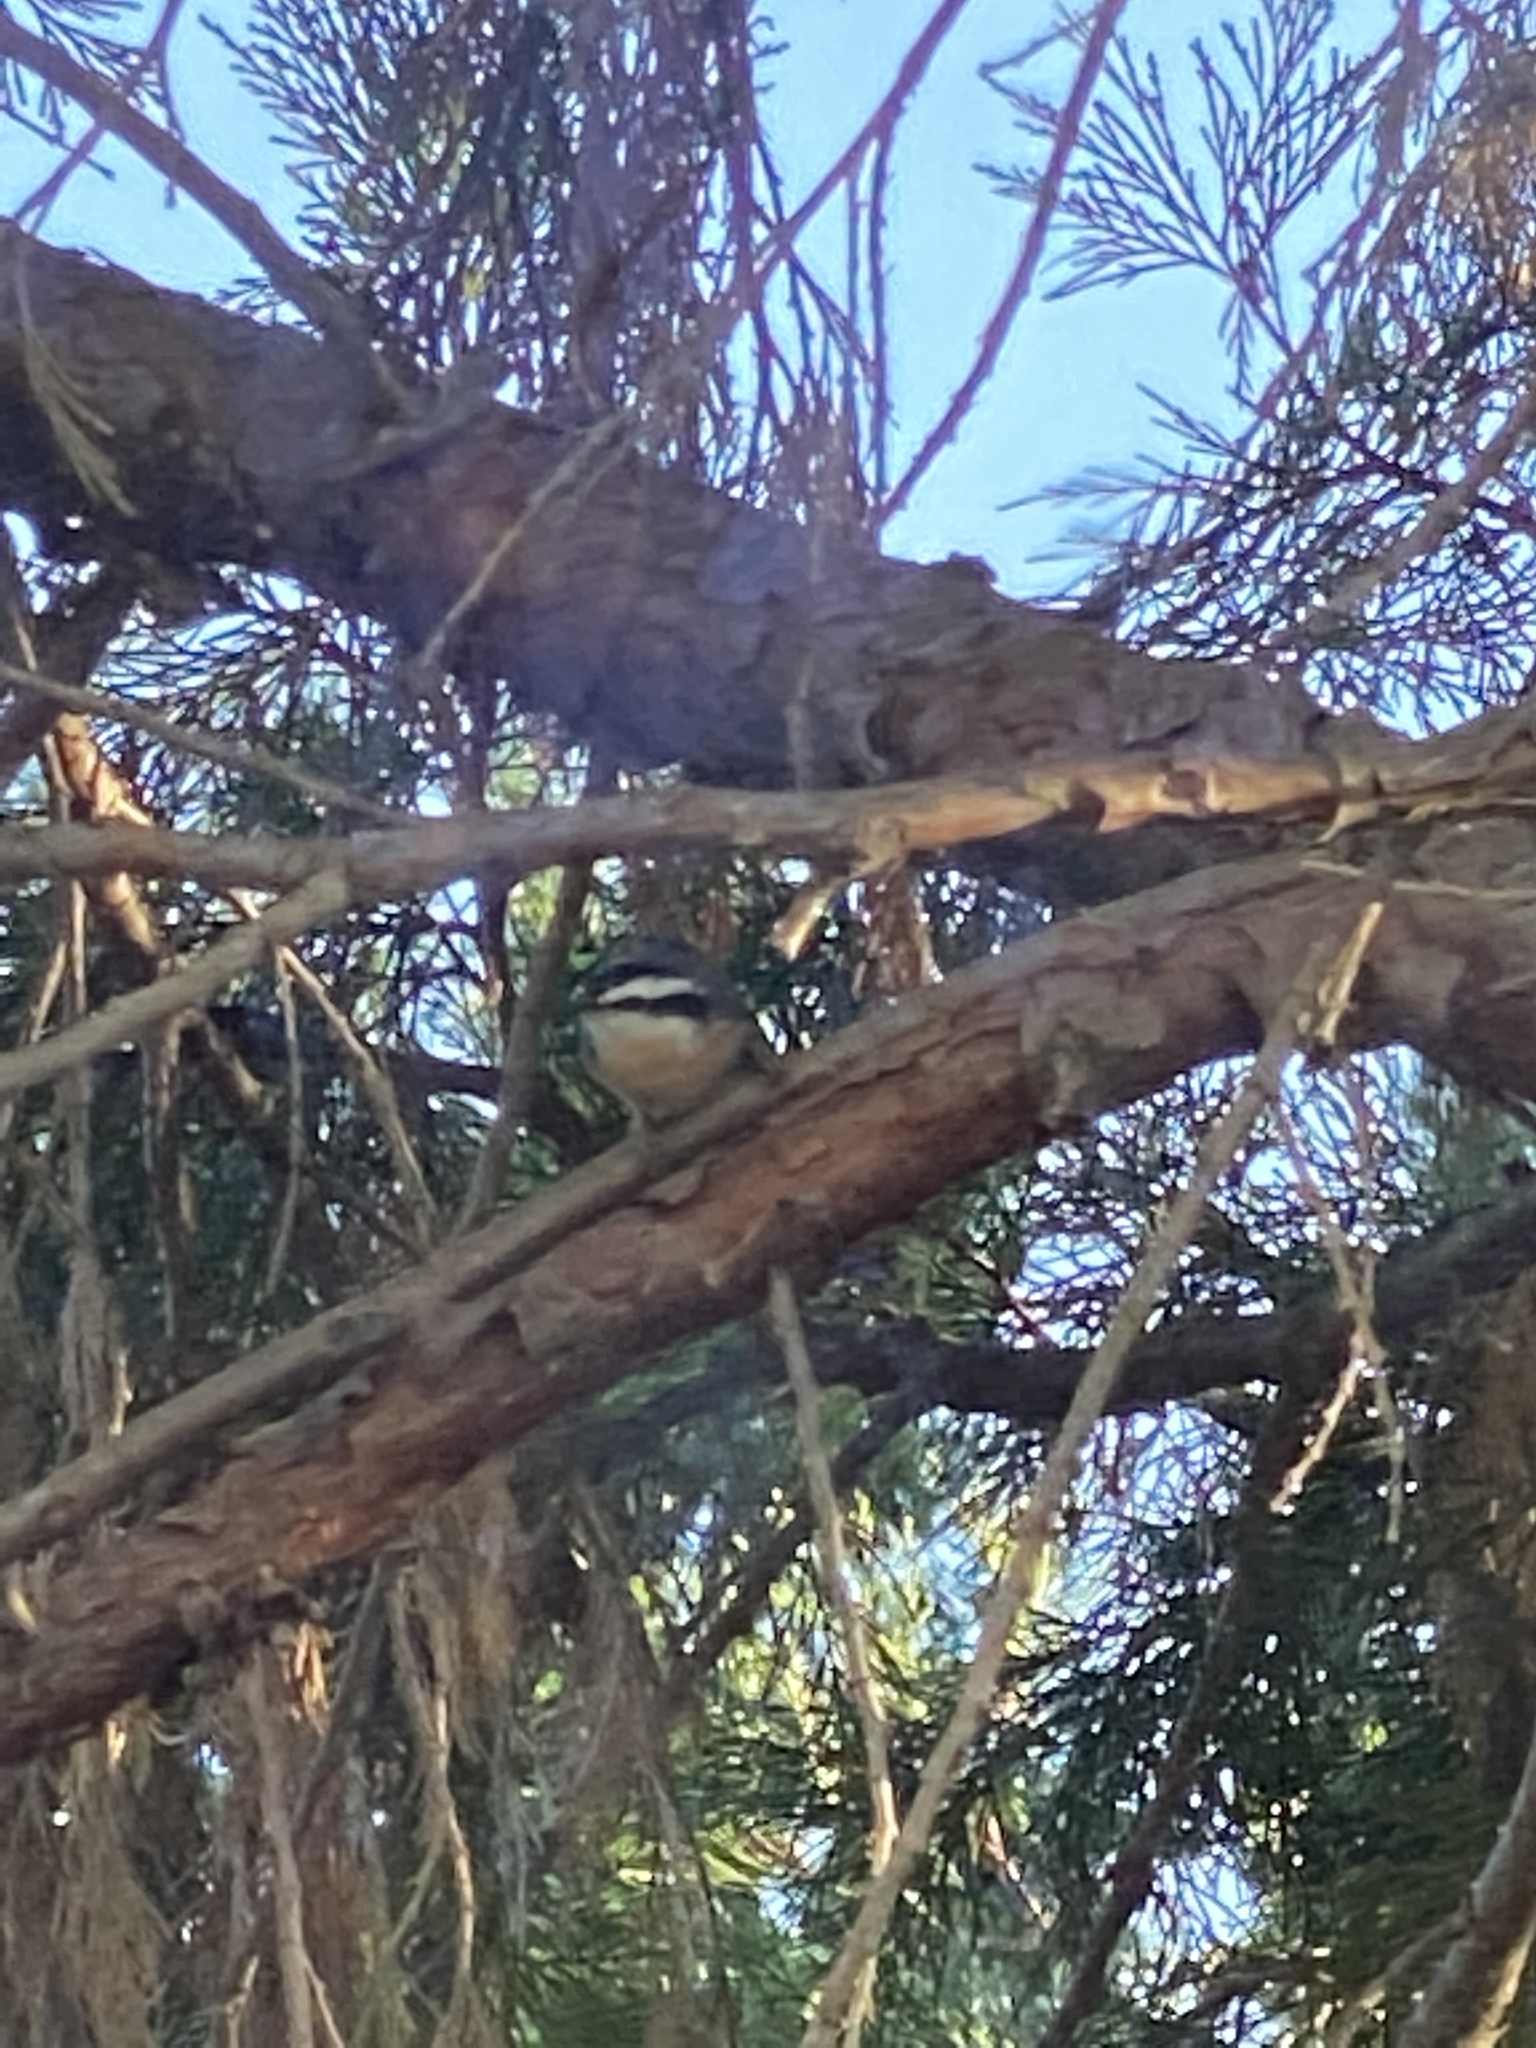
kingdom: Animalia
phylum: Chordata
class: Aves
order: Passeriformes
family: Sittidae
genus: Sitta
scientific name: Sitta canadensis
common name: Red-breasted nuthatch
